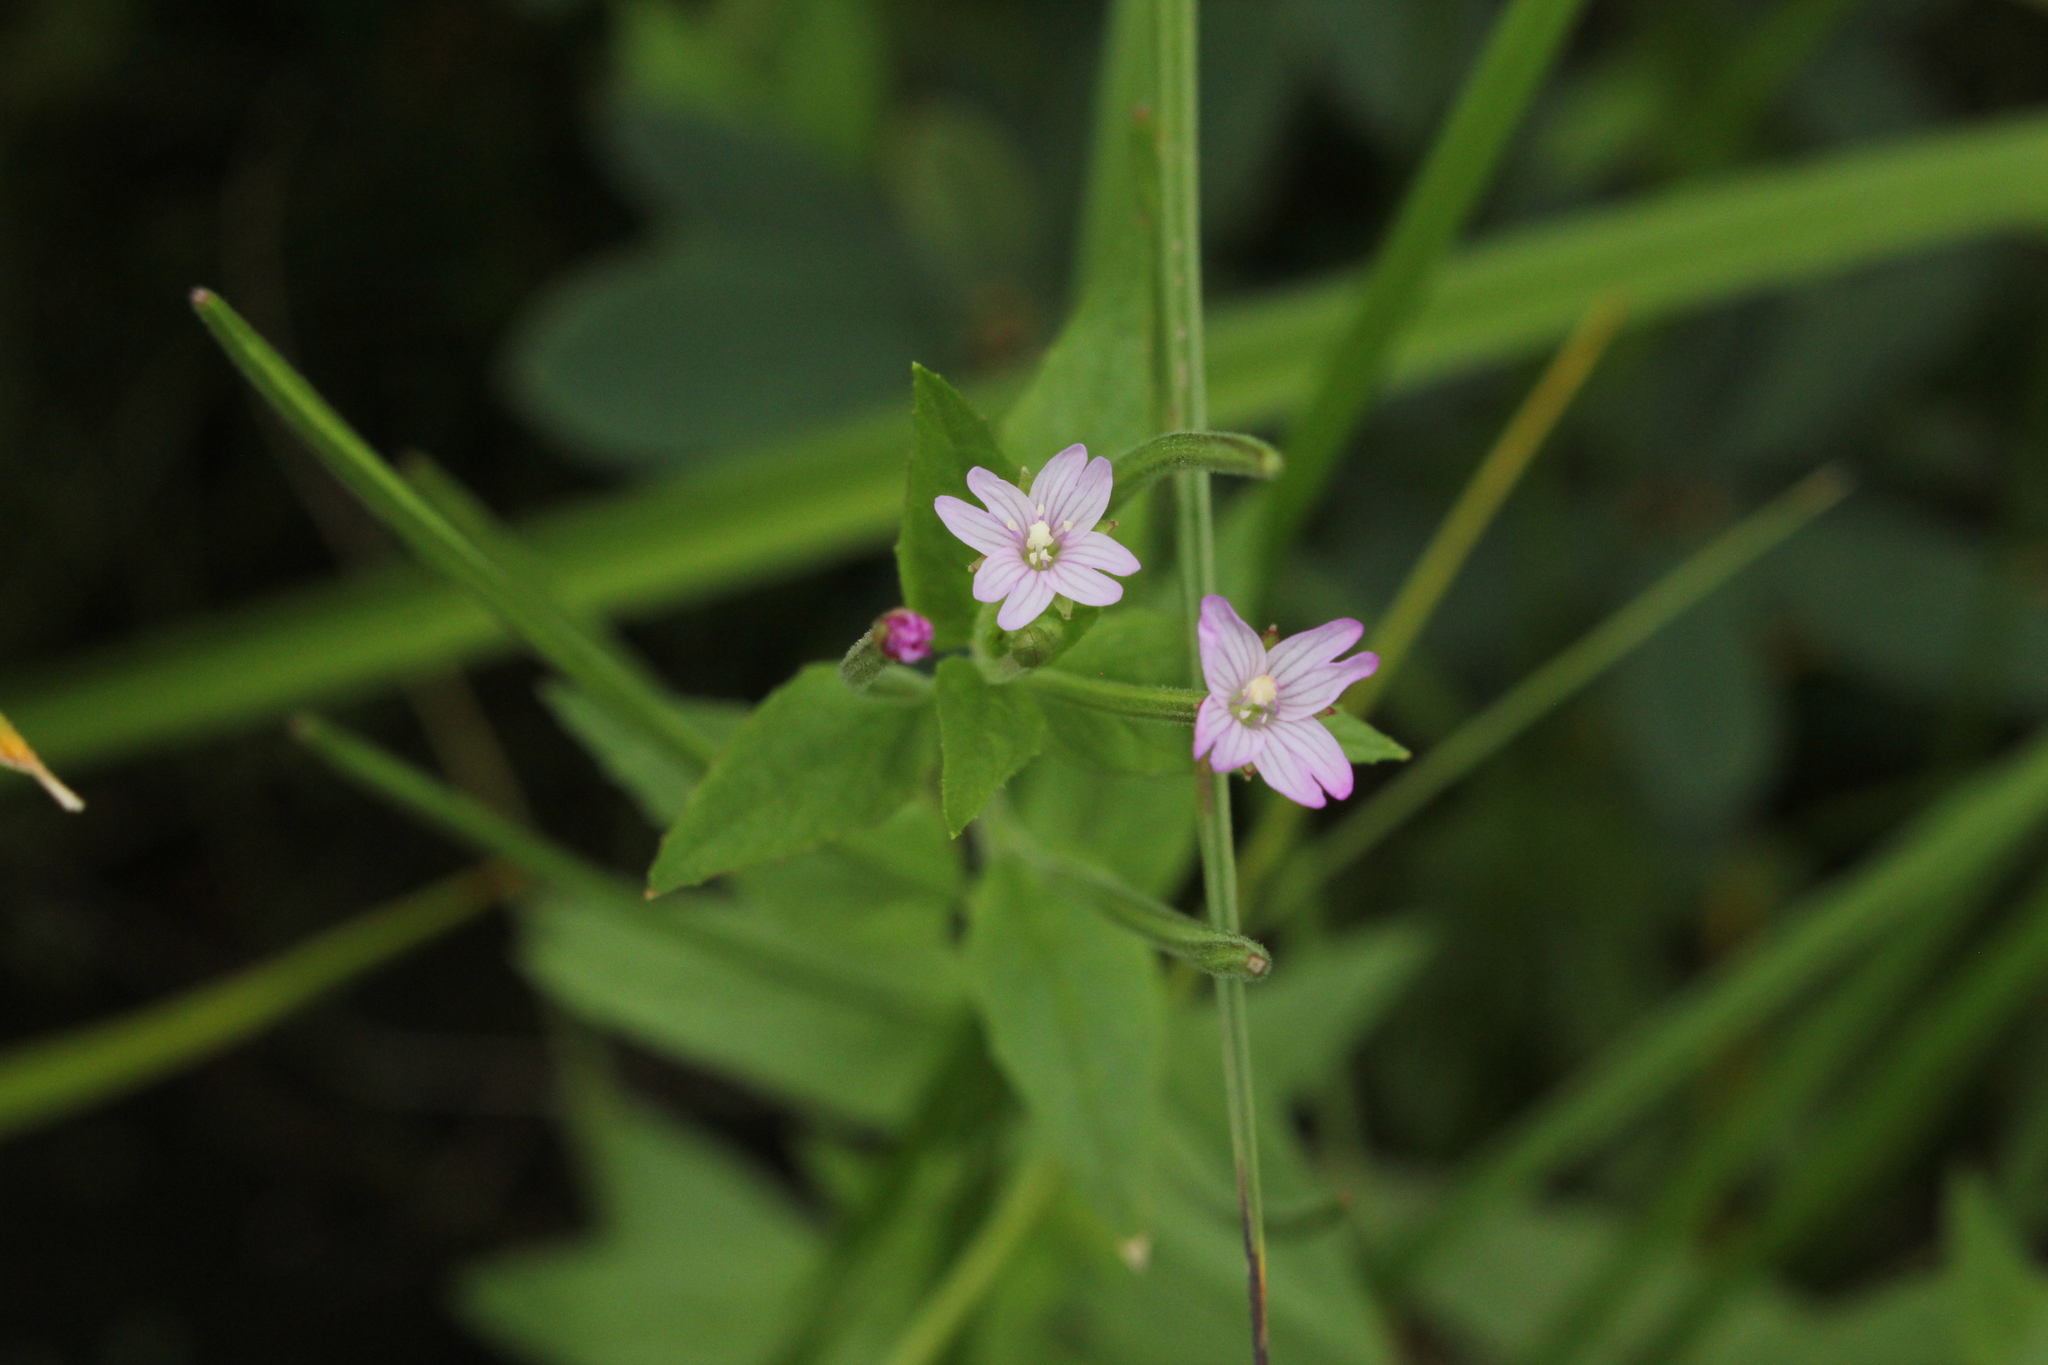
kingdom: Plantae
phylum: Tracheophyta
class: Magnoliopsida
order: Myrtales
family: Onagraceae
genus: Epilobium
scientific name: Epilobium ciliatum
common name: American willowherb
